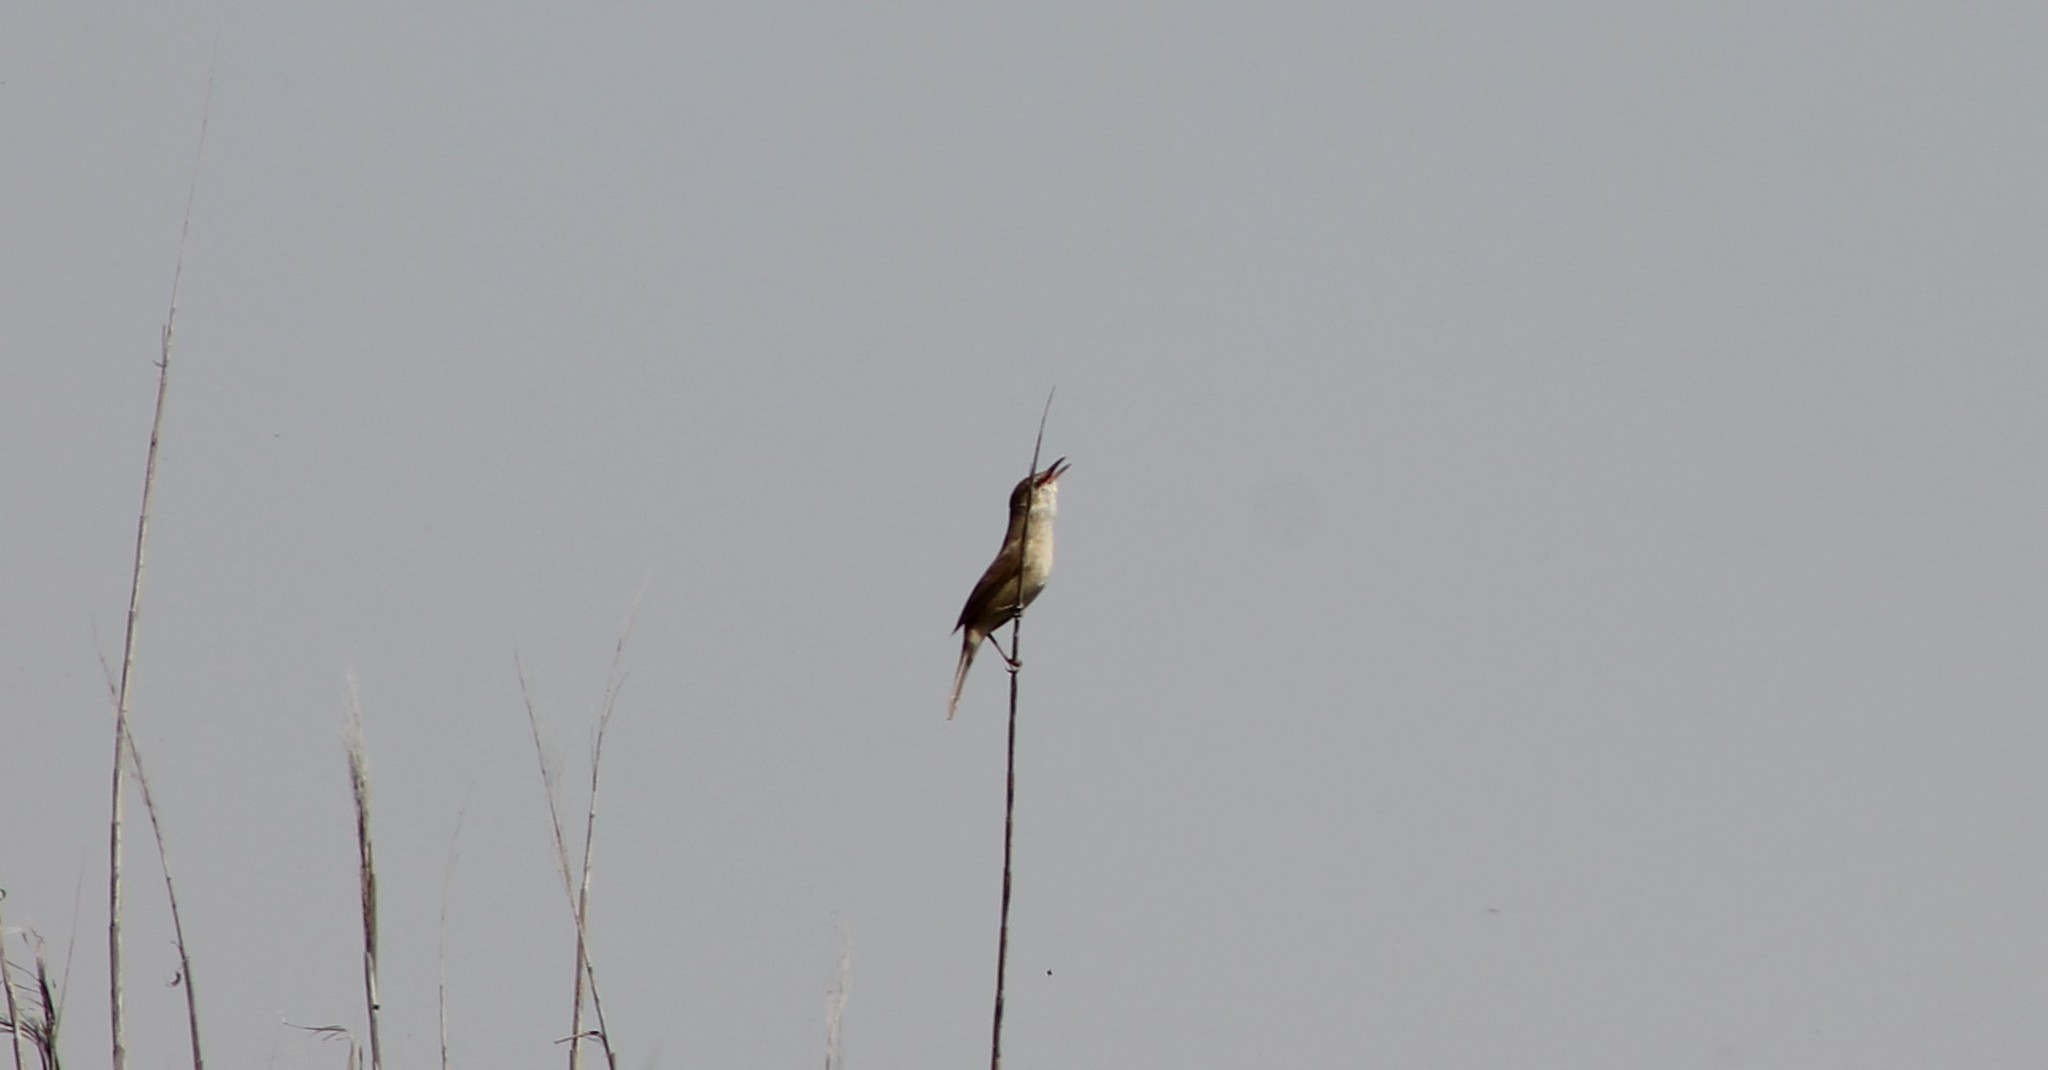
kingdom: Animalia
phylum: Chordata
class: Aves
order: Passeriformes
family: Acrocephalidae
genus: Acrocephalus
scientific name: Acrocephalus stentoreus
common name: Clamorous reed warbler
